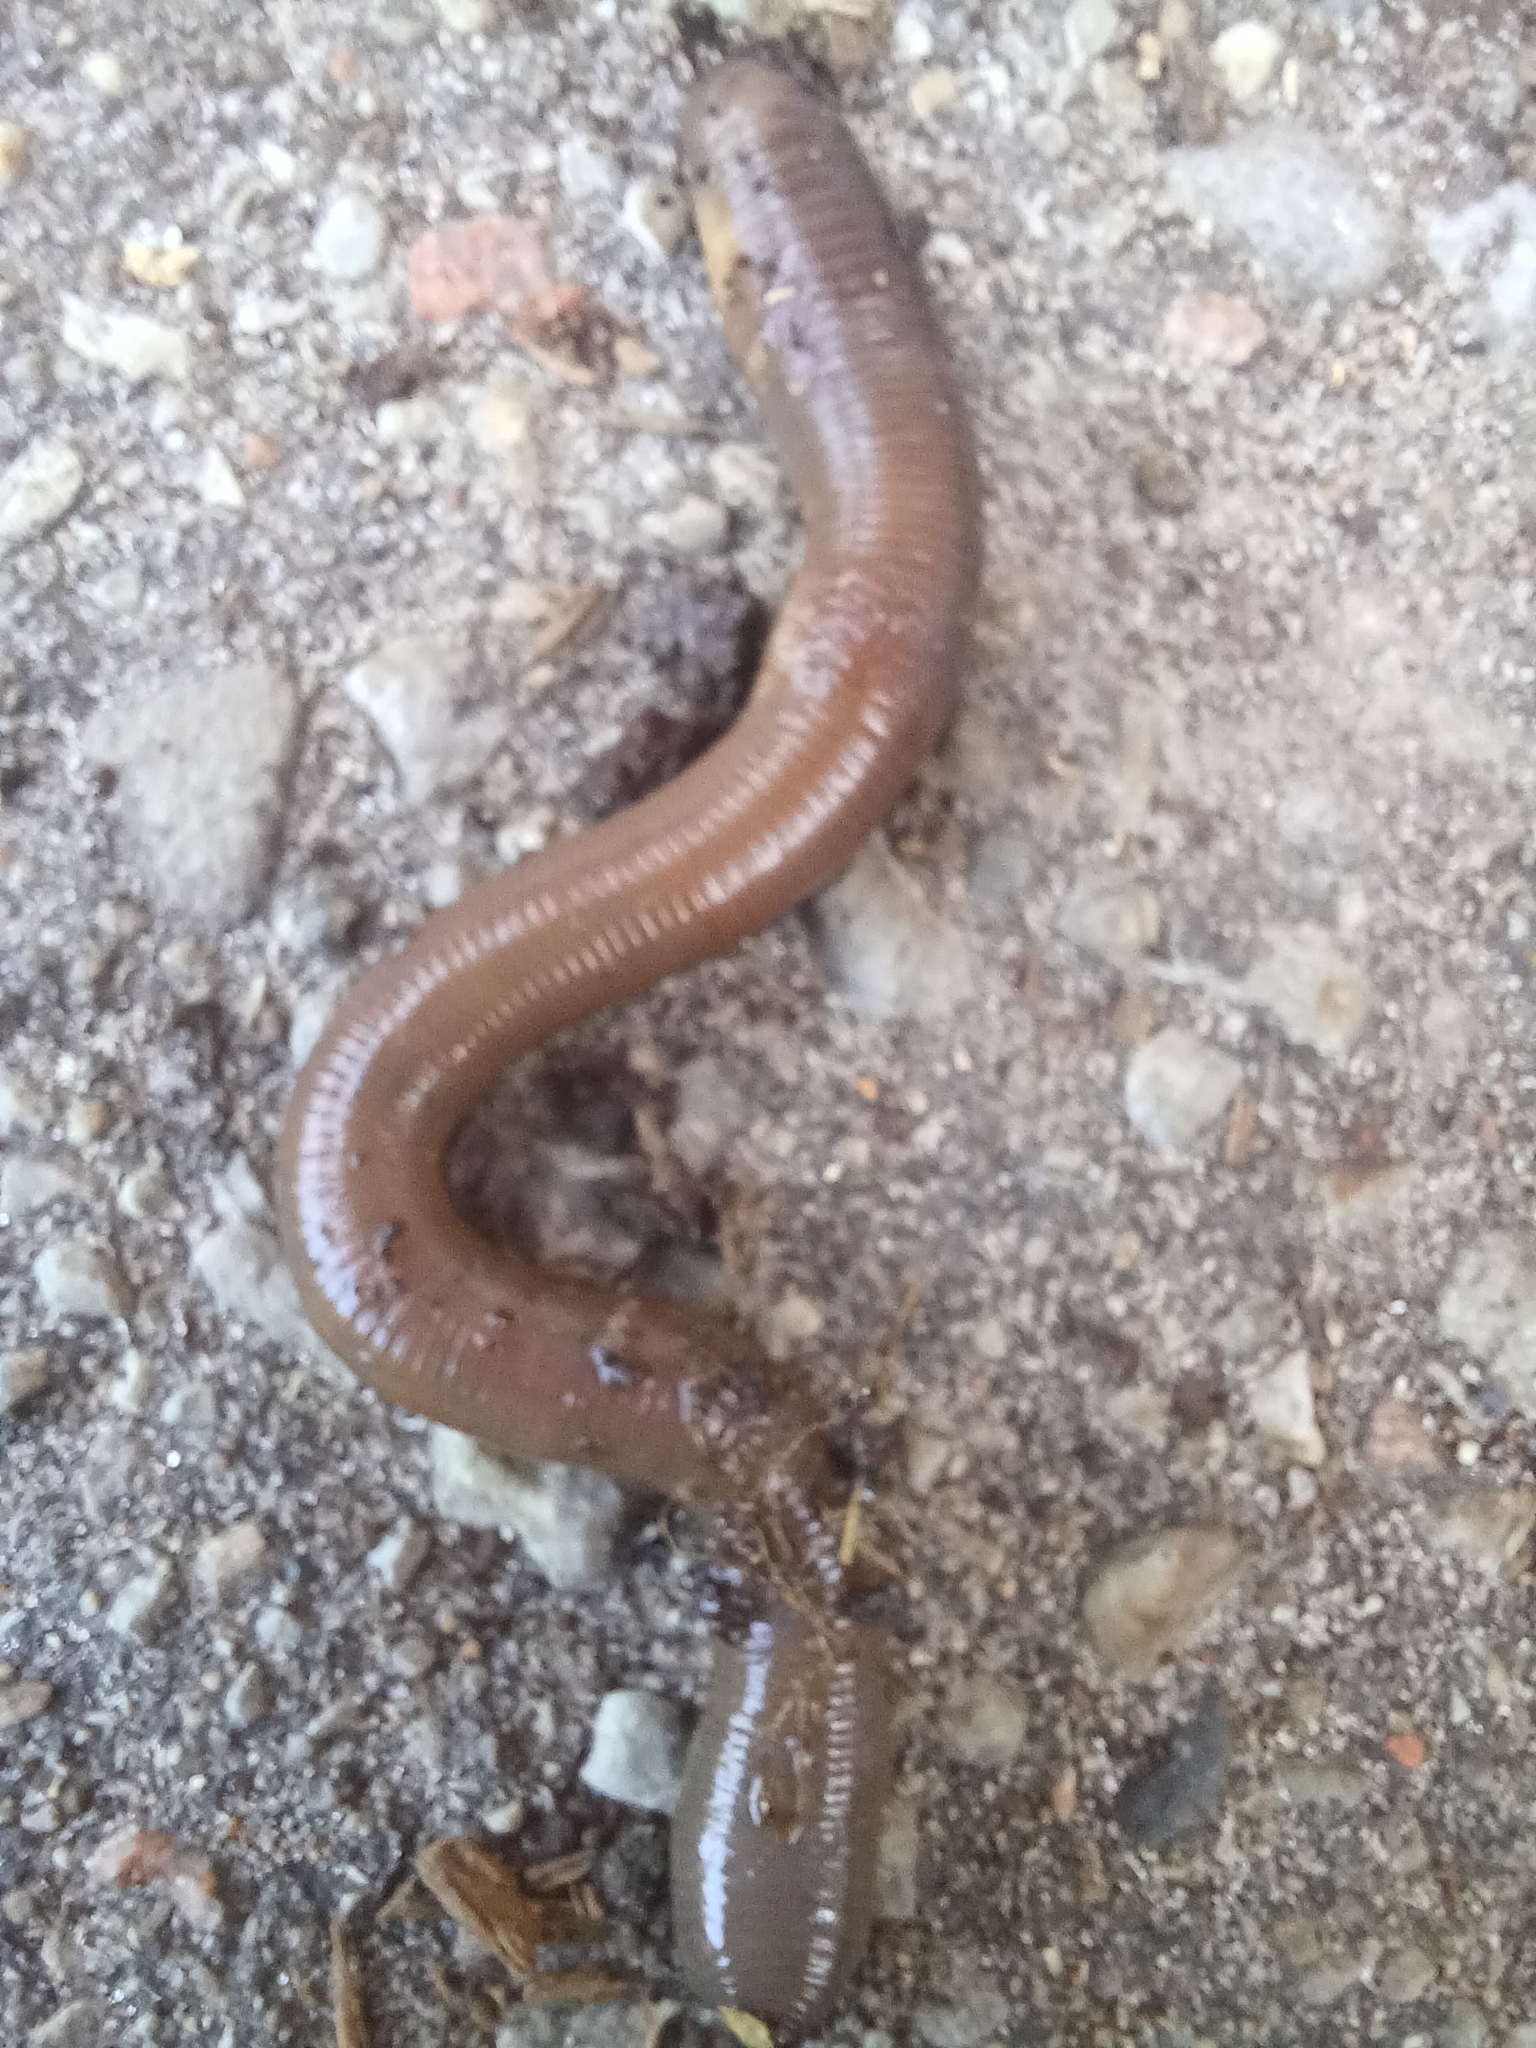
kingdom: Animalia
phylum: Annelida
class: Clitellata
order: Crassiclitellata
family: Lumbricidae
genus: Lumbricus
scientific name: Lumbricus terrestris
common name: Common earthworm
